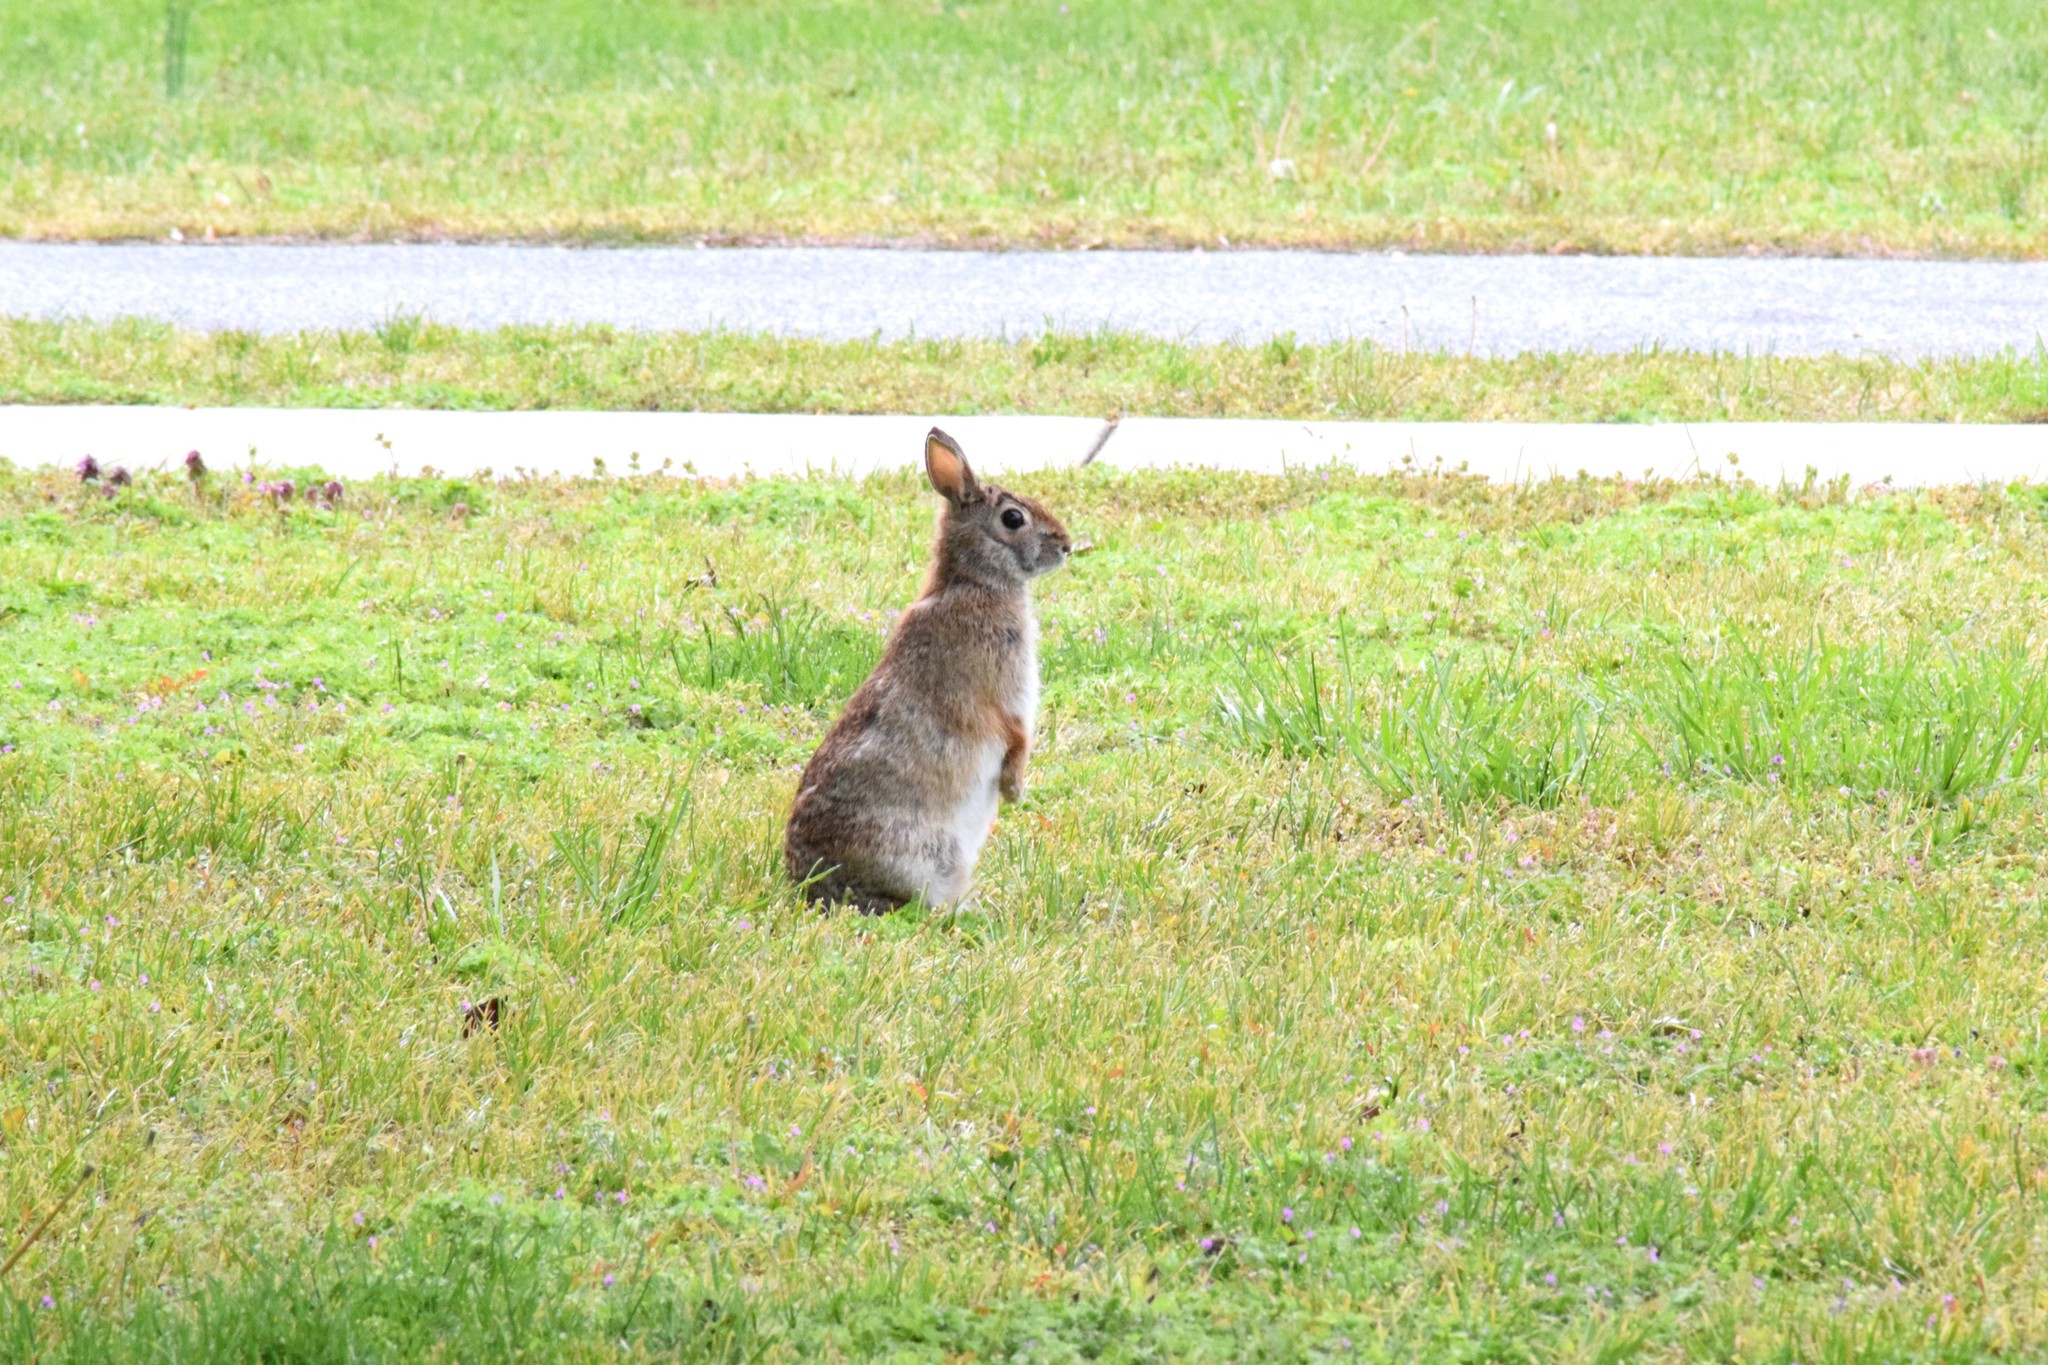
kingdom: Animalia
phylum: Chordata
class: Mammalia
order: Lagomorpha
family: Leporidae
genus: Sylvilagus
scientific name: Sylvilagus floridanus
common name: Eastern cottontail
